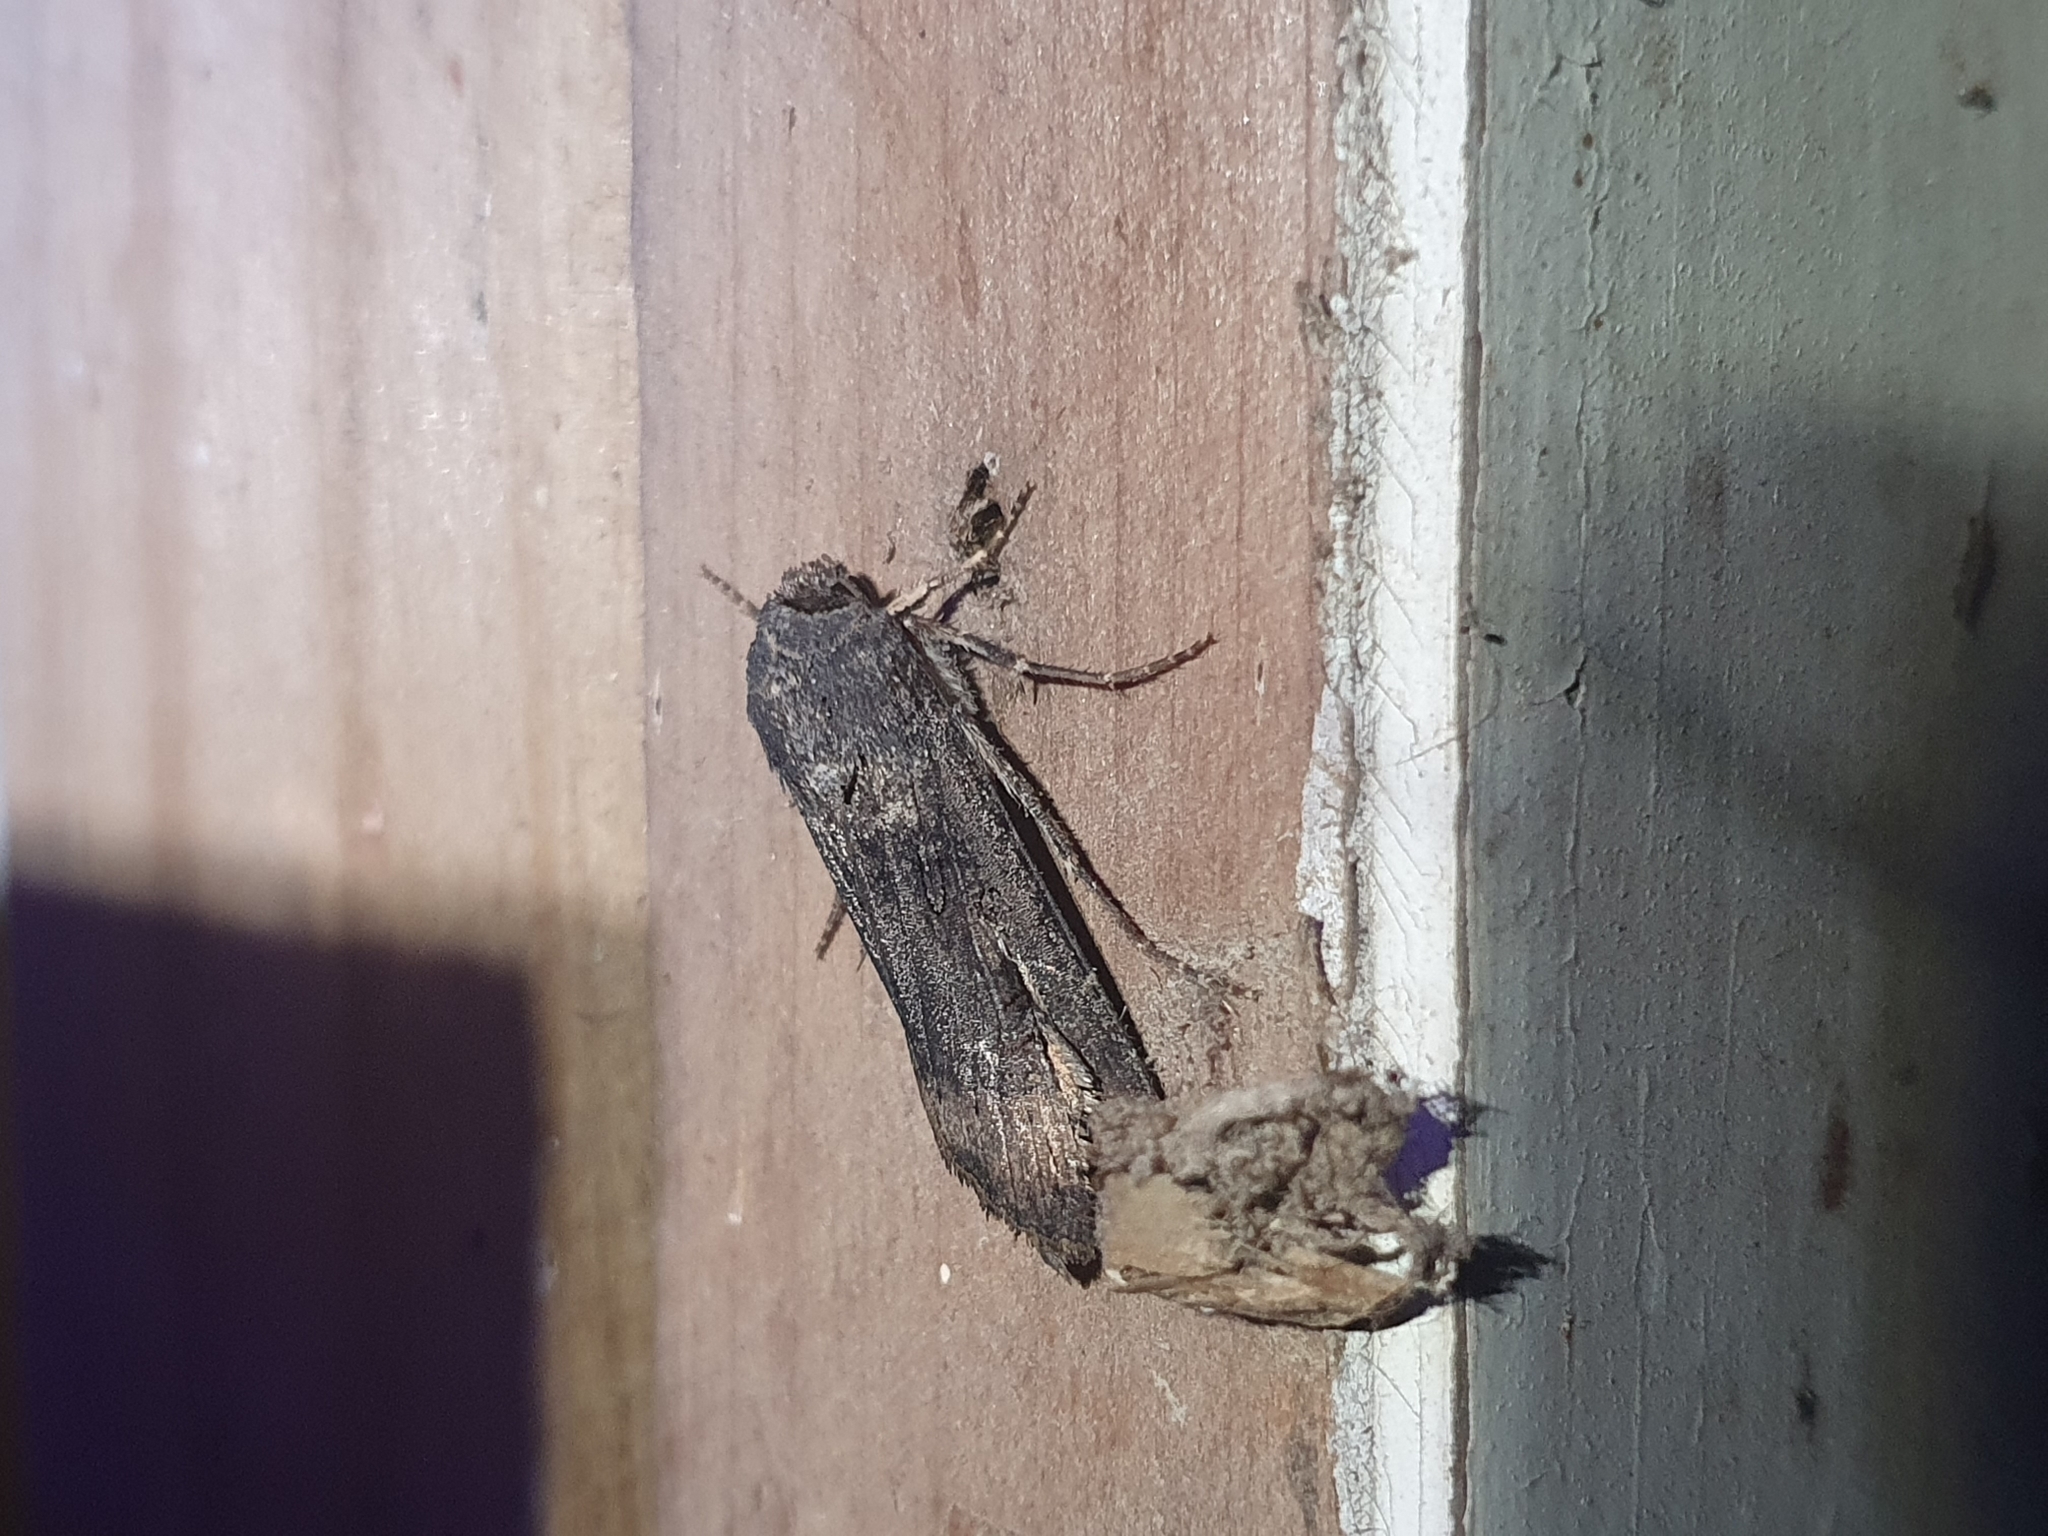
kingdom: Animalia
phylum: Arthropoda
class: Insecta
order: Lepidoptera
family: Noctuidae
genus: Agrotis
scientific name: Agrotis ipsilon
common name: Dark sword-grass
